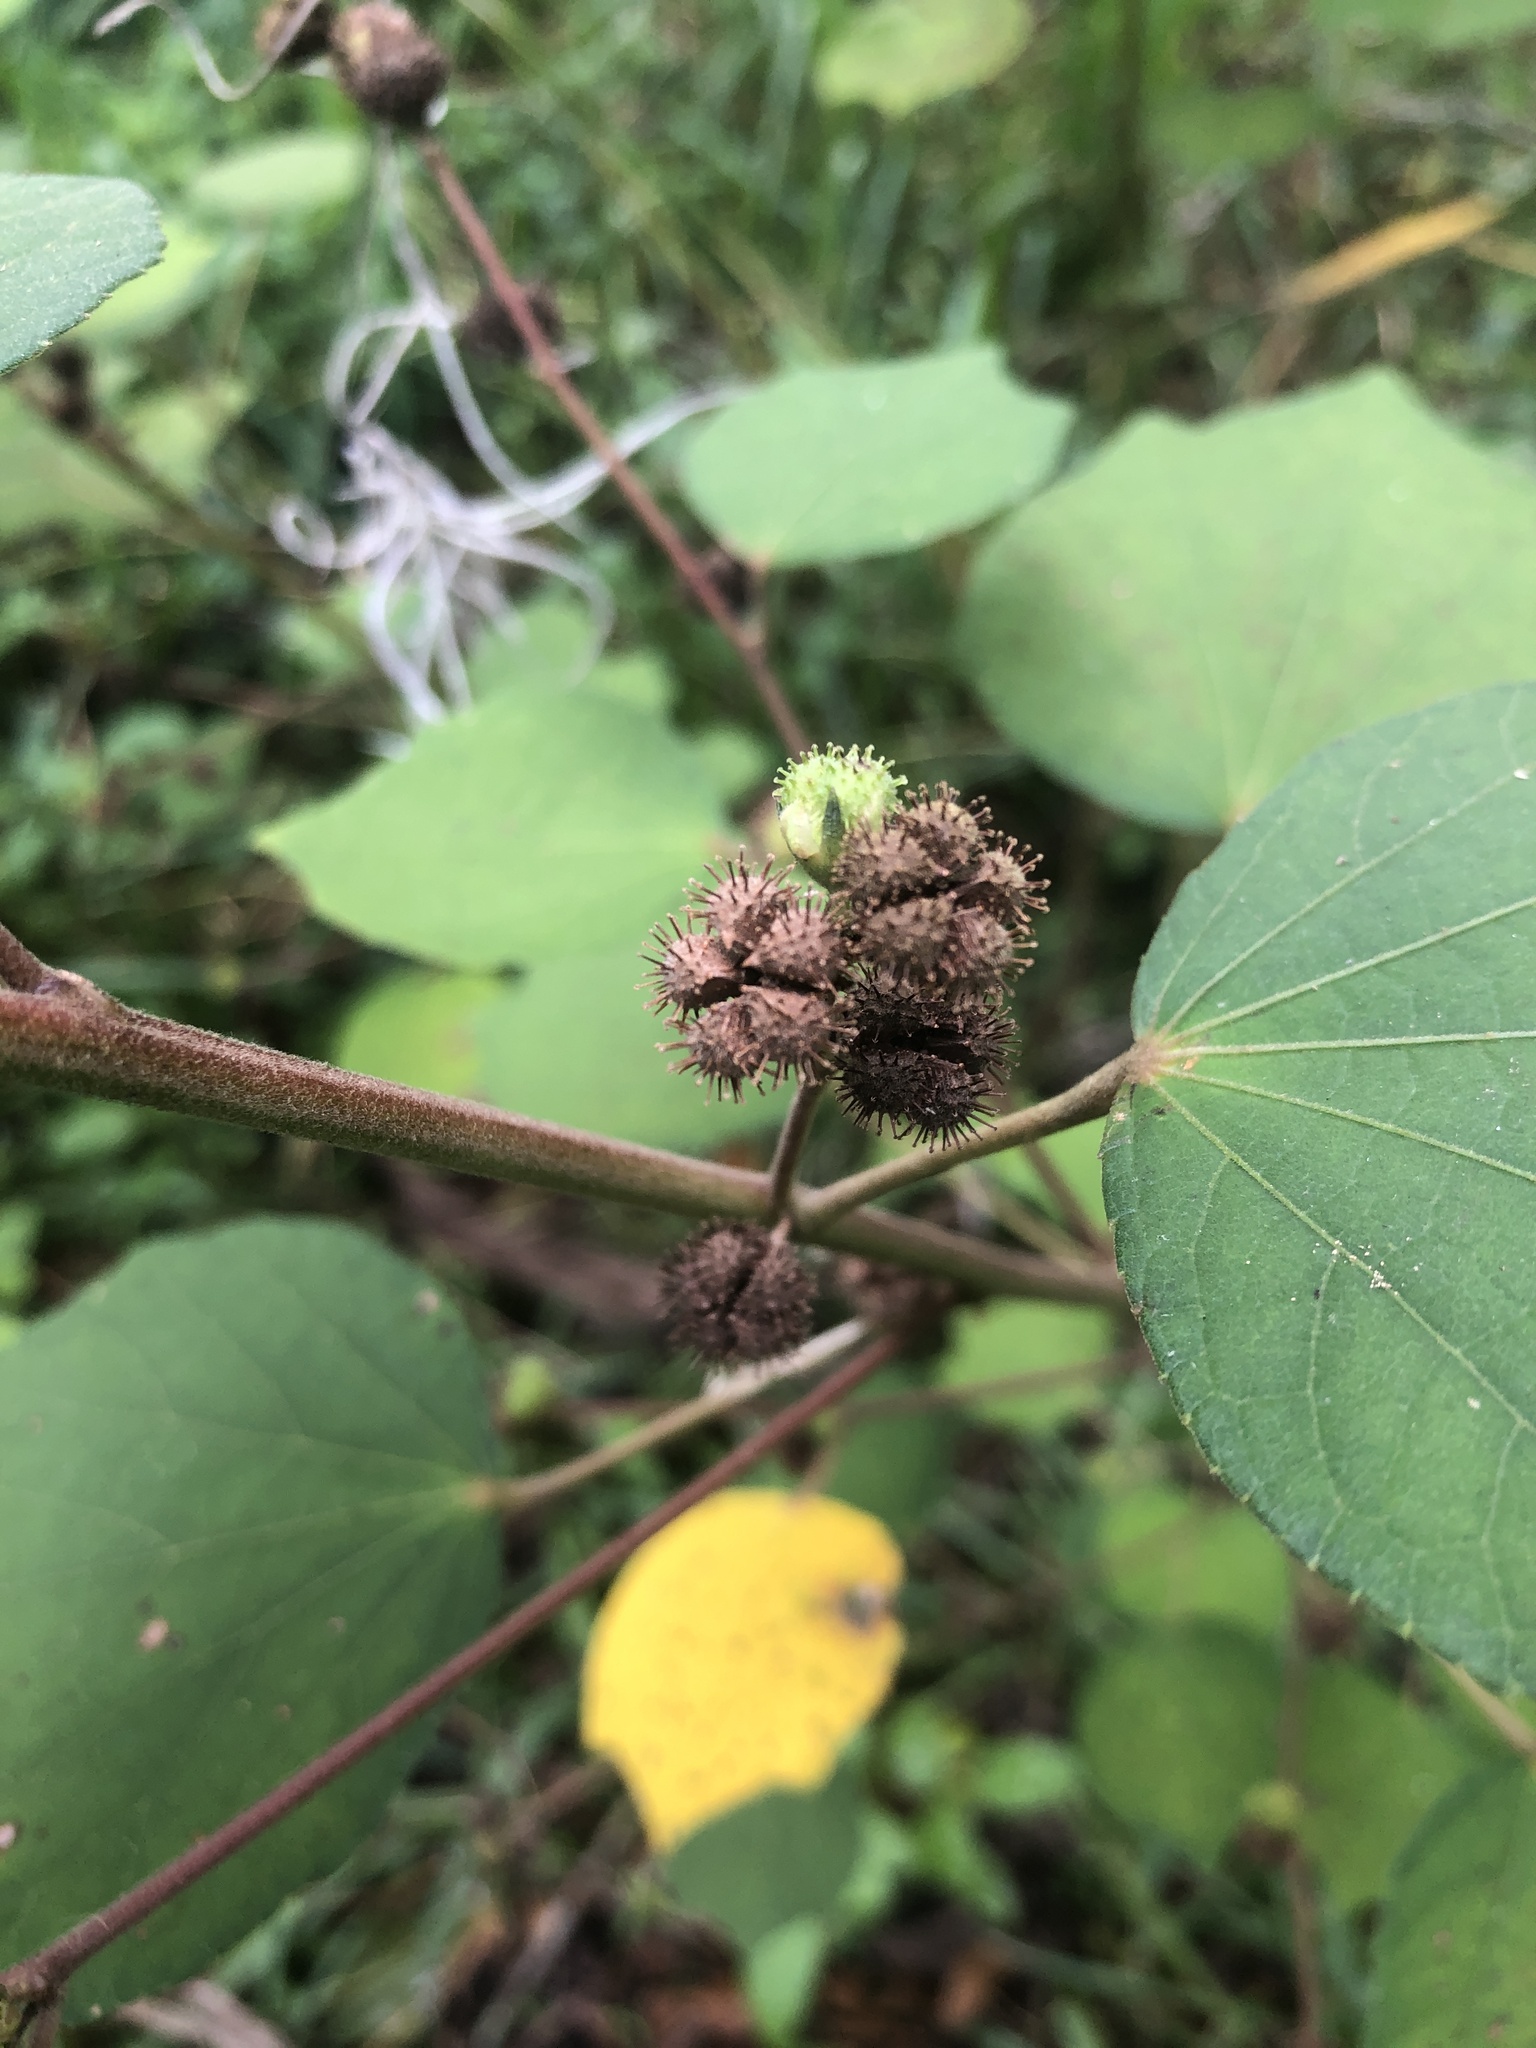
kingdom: Plantae
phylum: Tracheophyta
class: Magnoliopsida
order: Malvales
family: Malvaceae
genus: Urena
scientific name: Urena lobata
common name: Caesarweed
